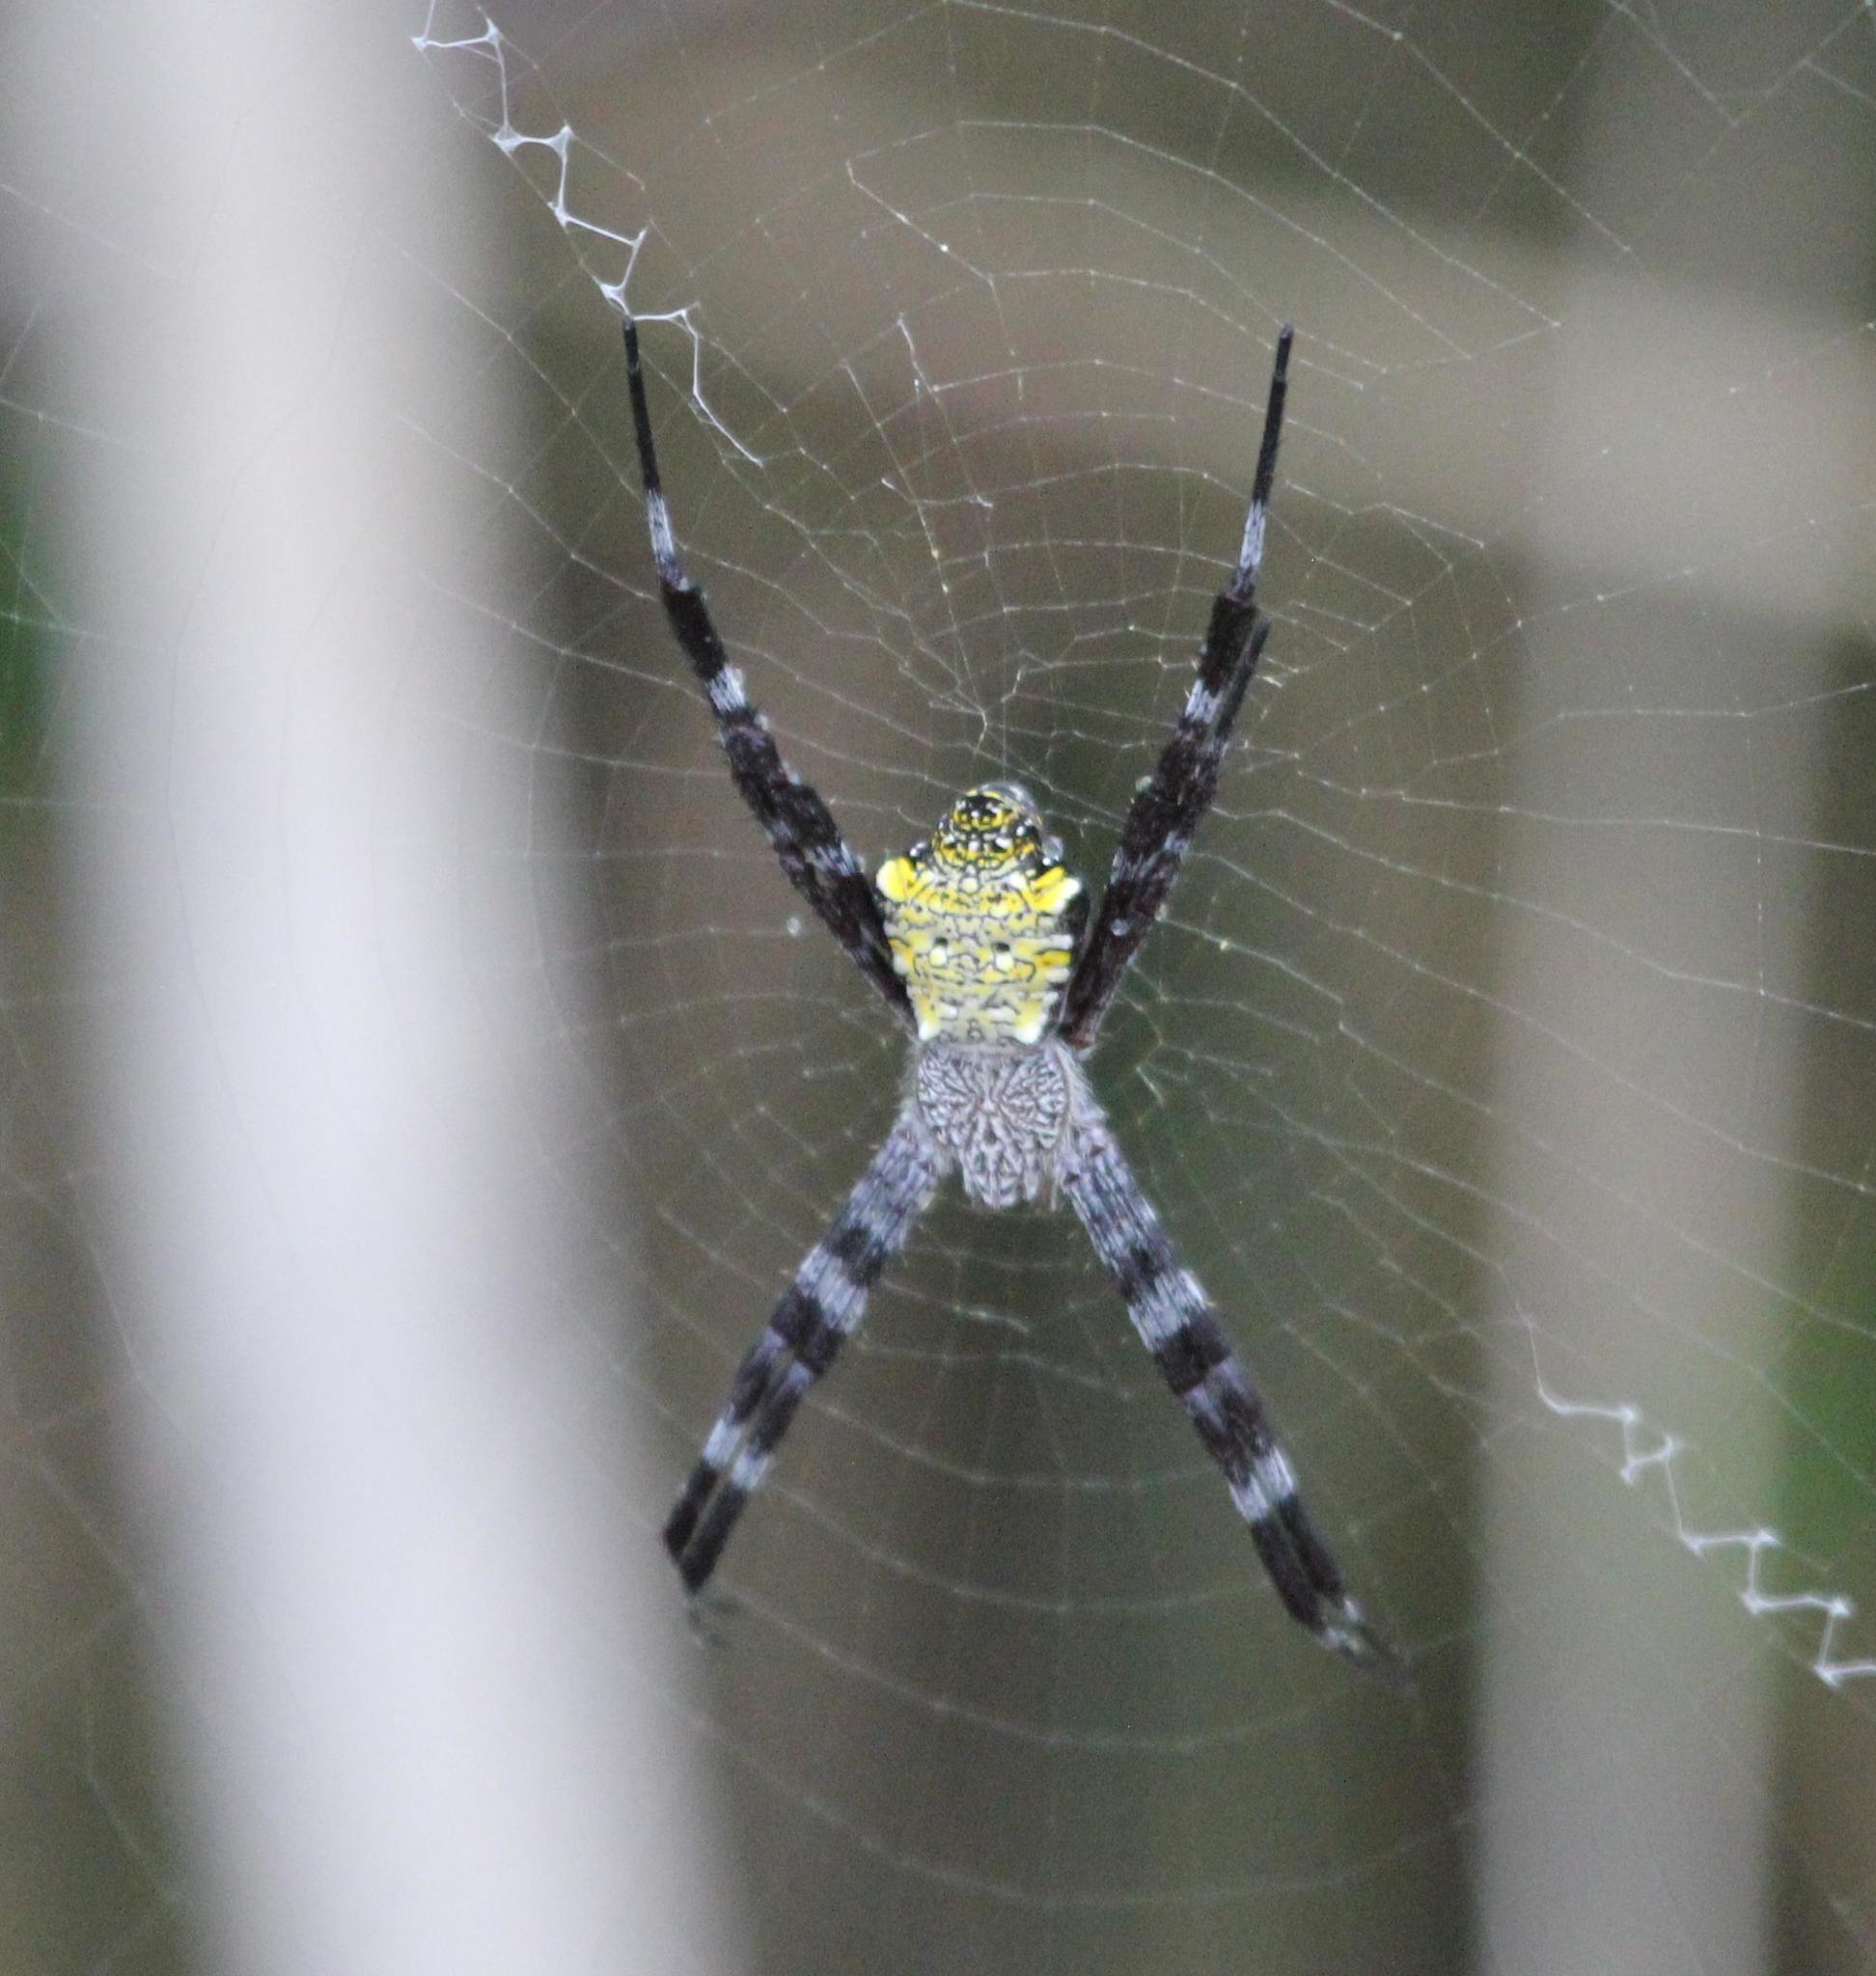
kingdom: Animalia
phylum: Arthropoda
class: Arachnida
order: Araneae
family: Araneidae
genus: Argiope
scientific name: Argiope appensa
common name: Garden spider
